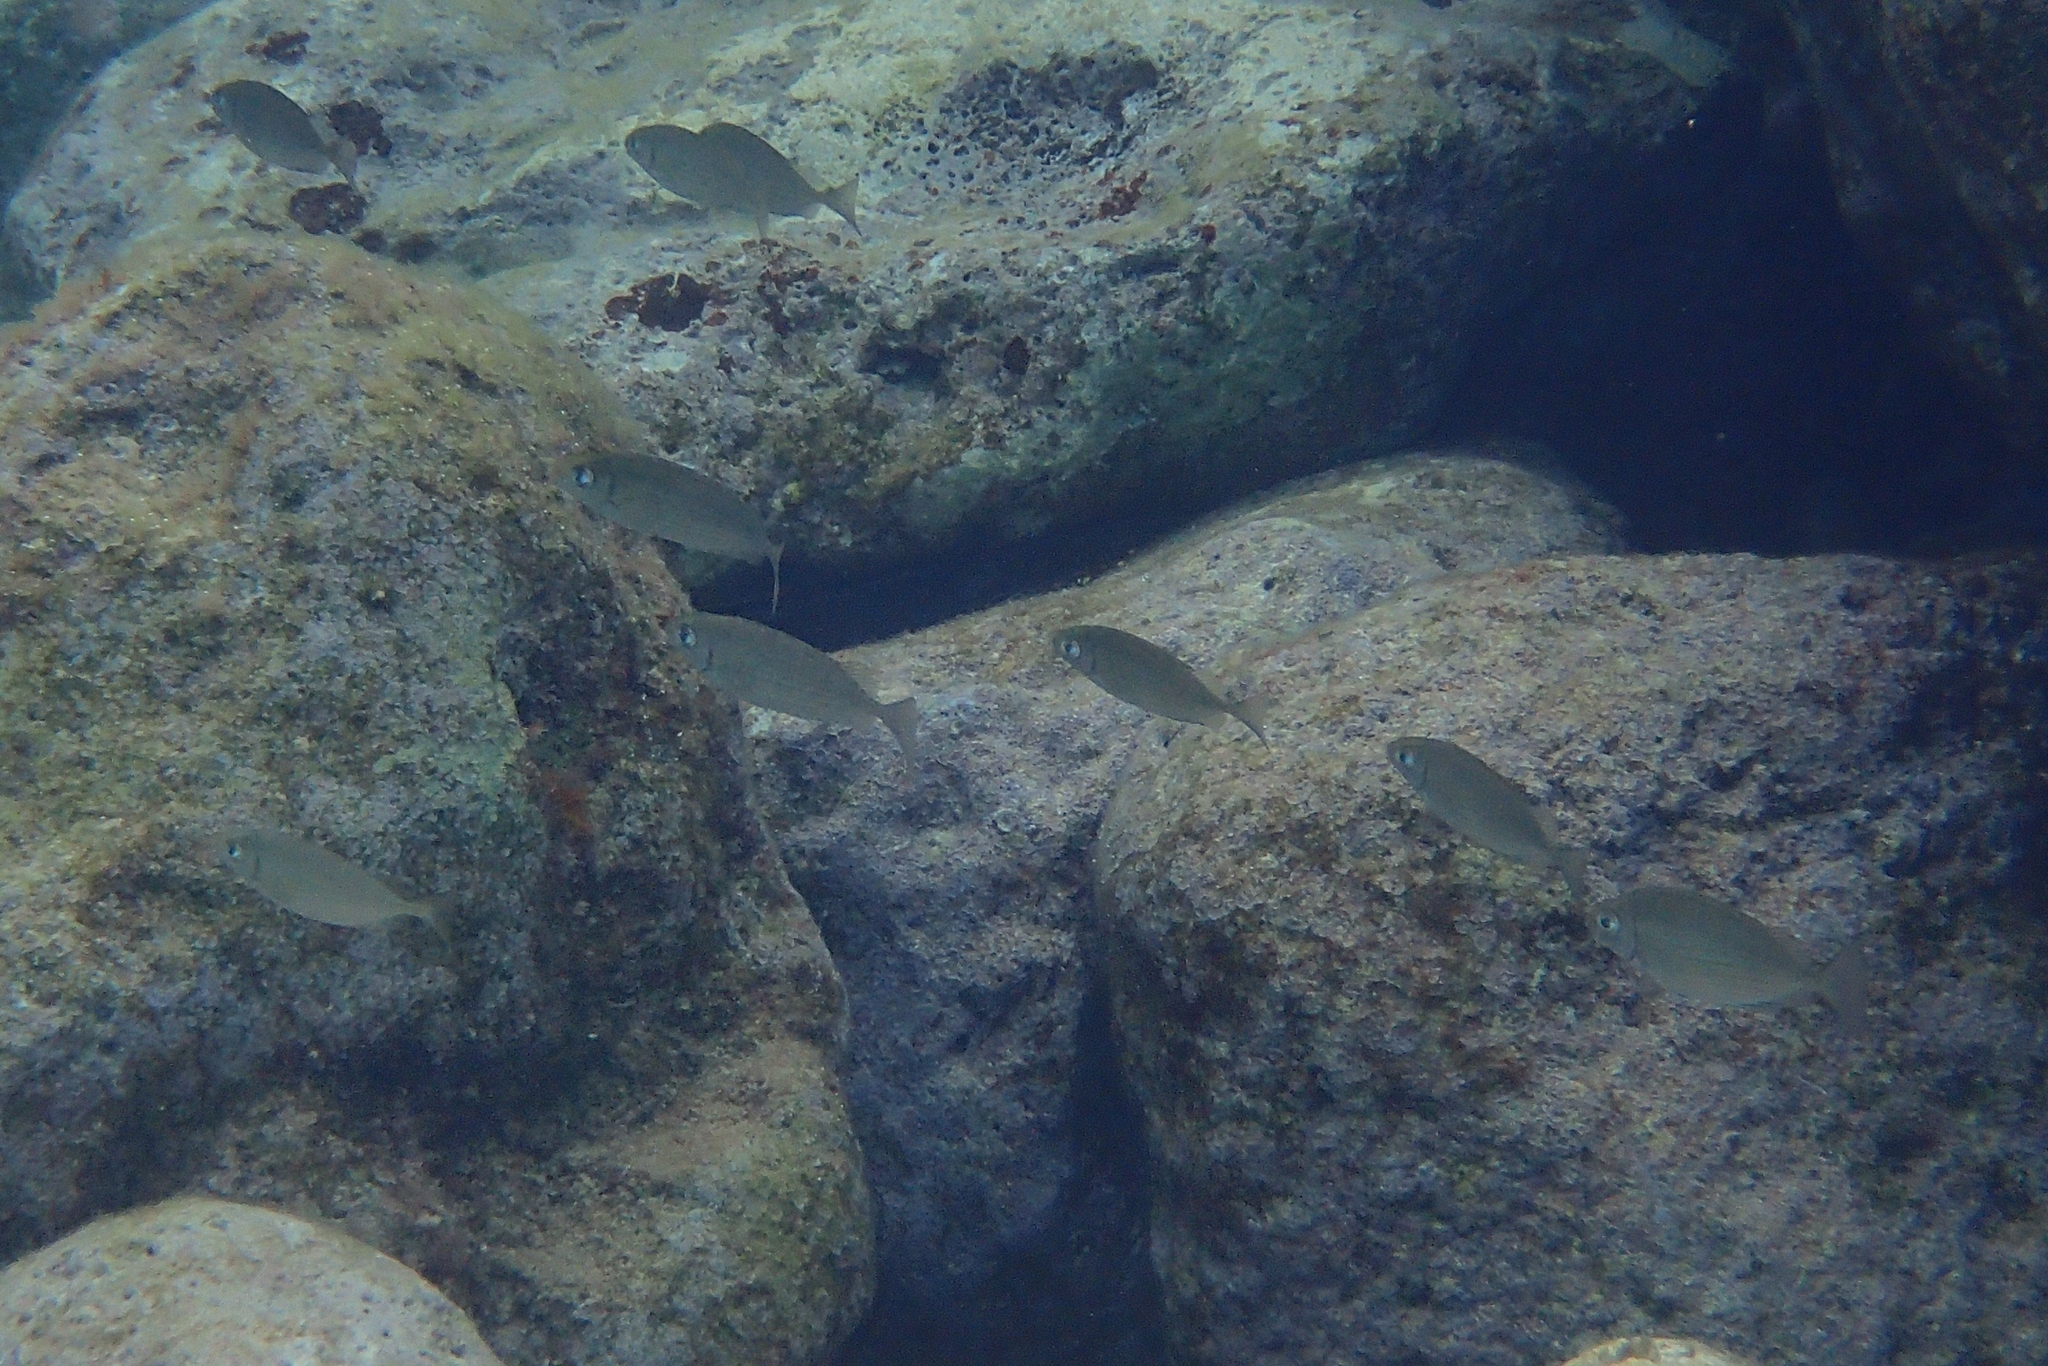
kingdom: Animalia
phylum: Chordata
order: Perciformes
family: Siganidae
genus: Siganus
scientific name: Siganus rivulatus
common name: Marbled spinefoot
